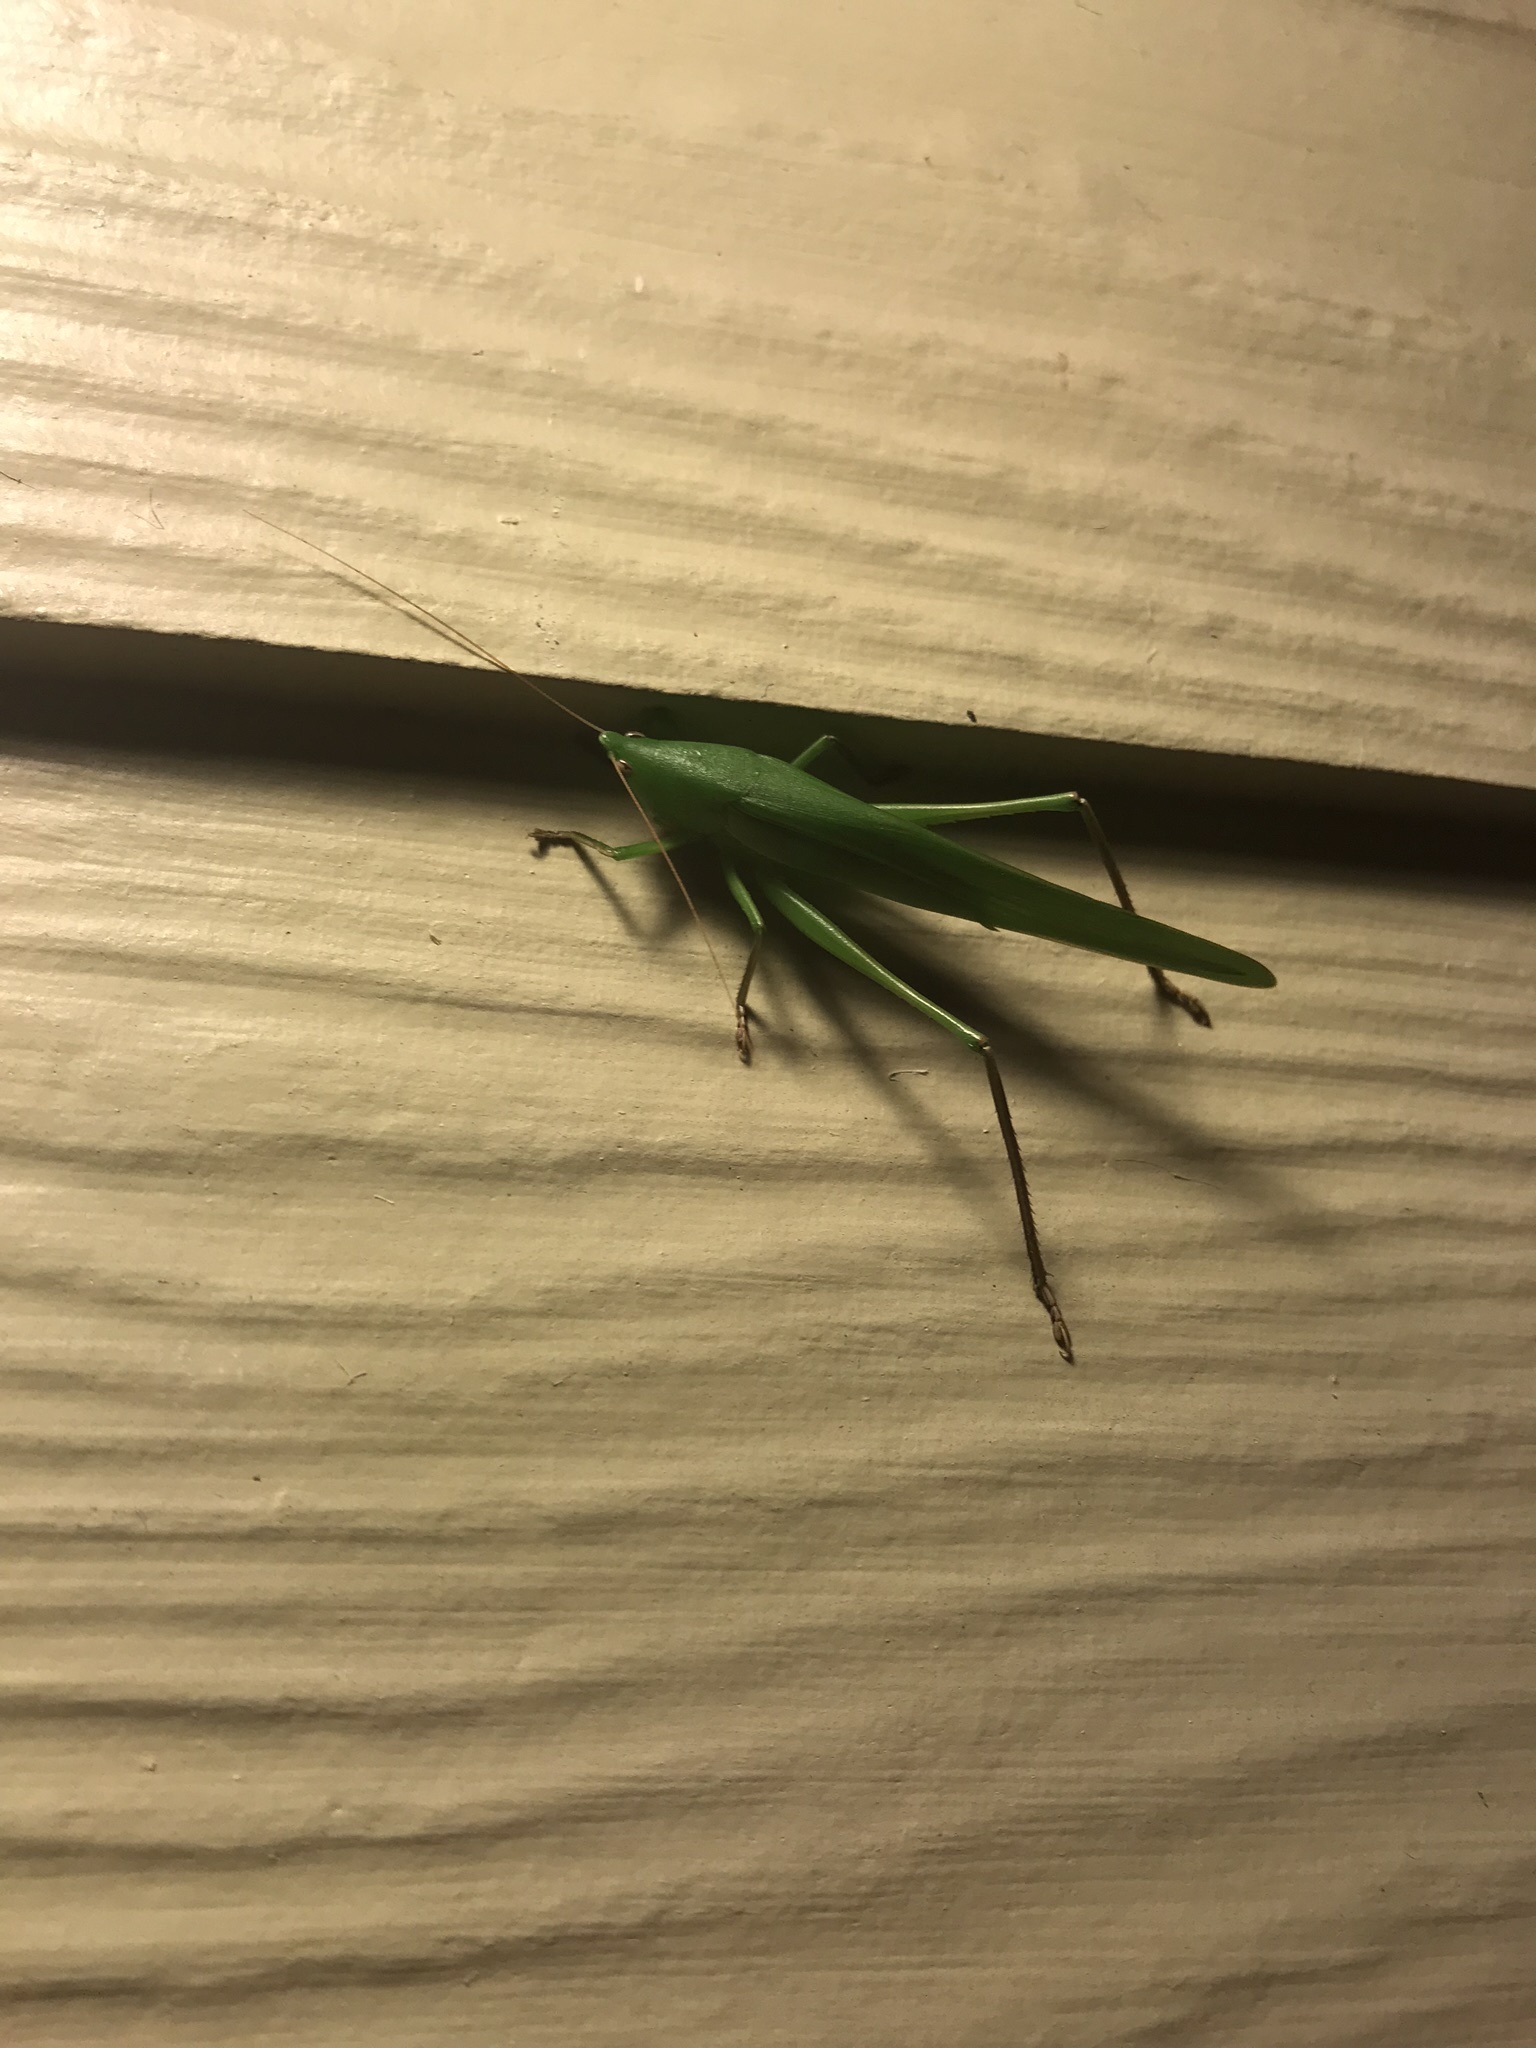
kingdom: Animalia
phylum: Arthropoda
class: Insecta
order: Orthoptera
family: Tettigoniidae
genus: Neoconocephalus
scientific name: Neoconocephalus triops
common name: Broad-tipped conehead
